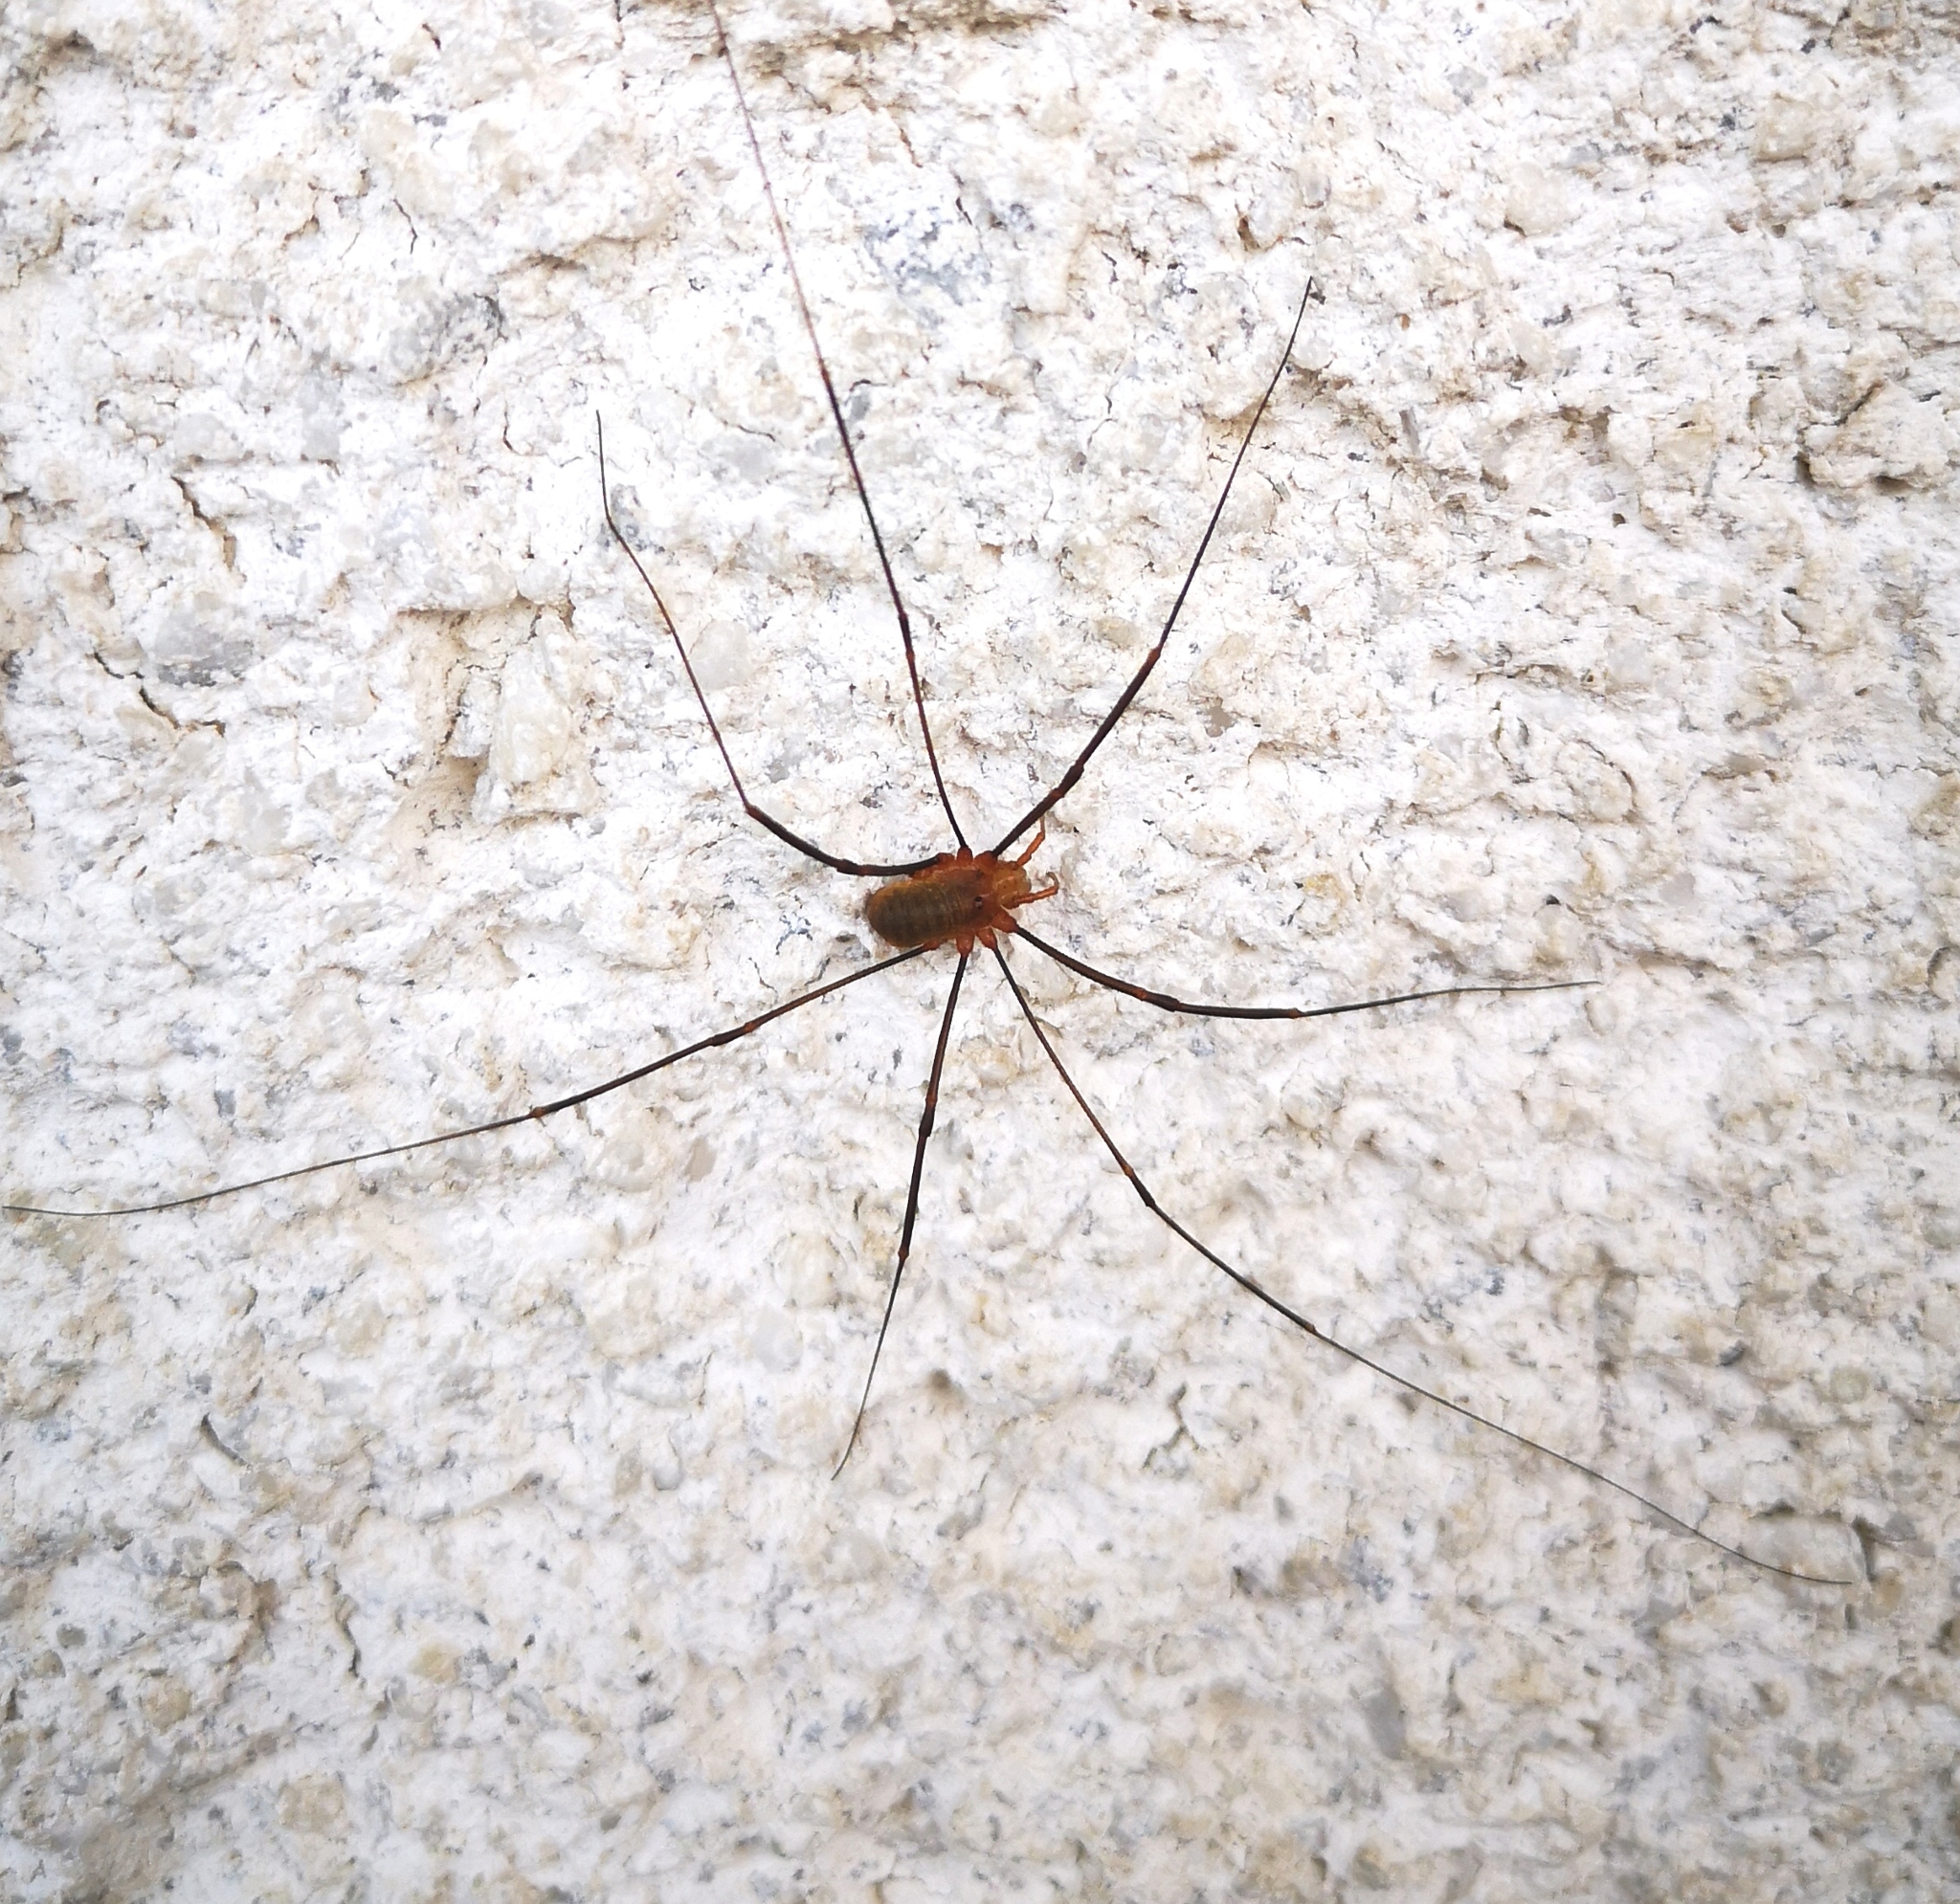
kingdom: Animalia
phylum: Arthropoda
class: Arachnida
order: Opiliones
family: Phalangiidae
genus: Opilio
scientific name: Opilio canestrinii
